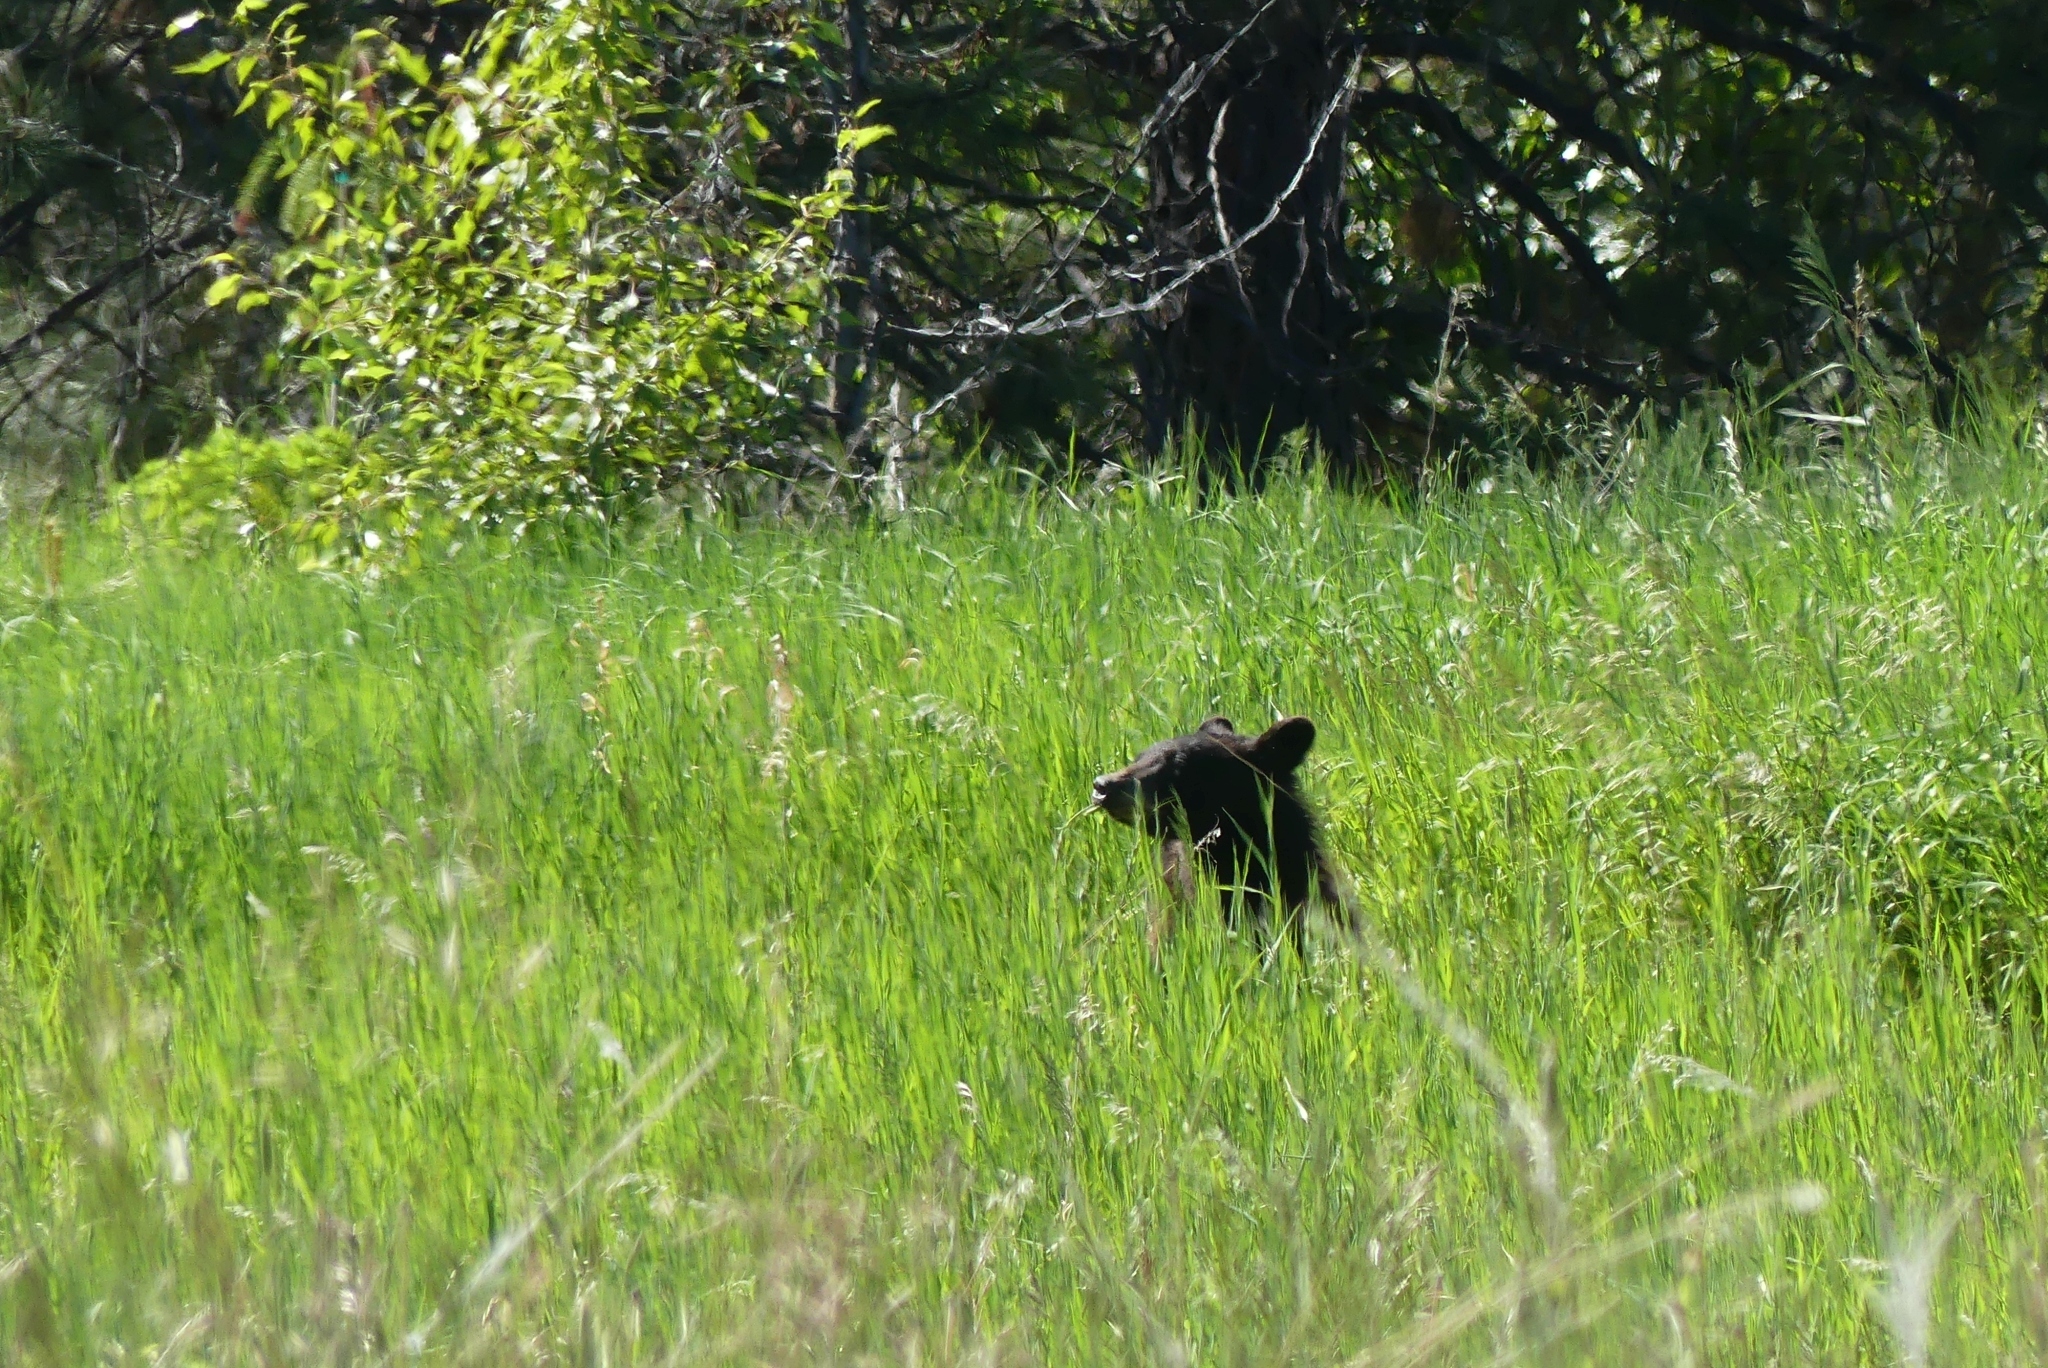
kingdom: Animalia
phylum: Chordata
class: Mammalia
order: Carnivora
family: Ursidae
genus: Ursus
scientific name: Ursus americanus
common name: American black bear
